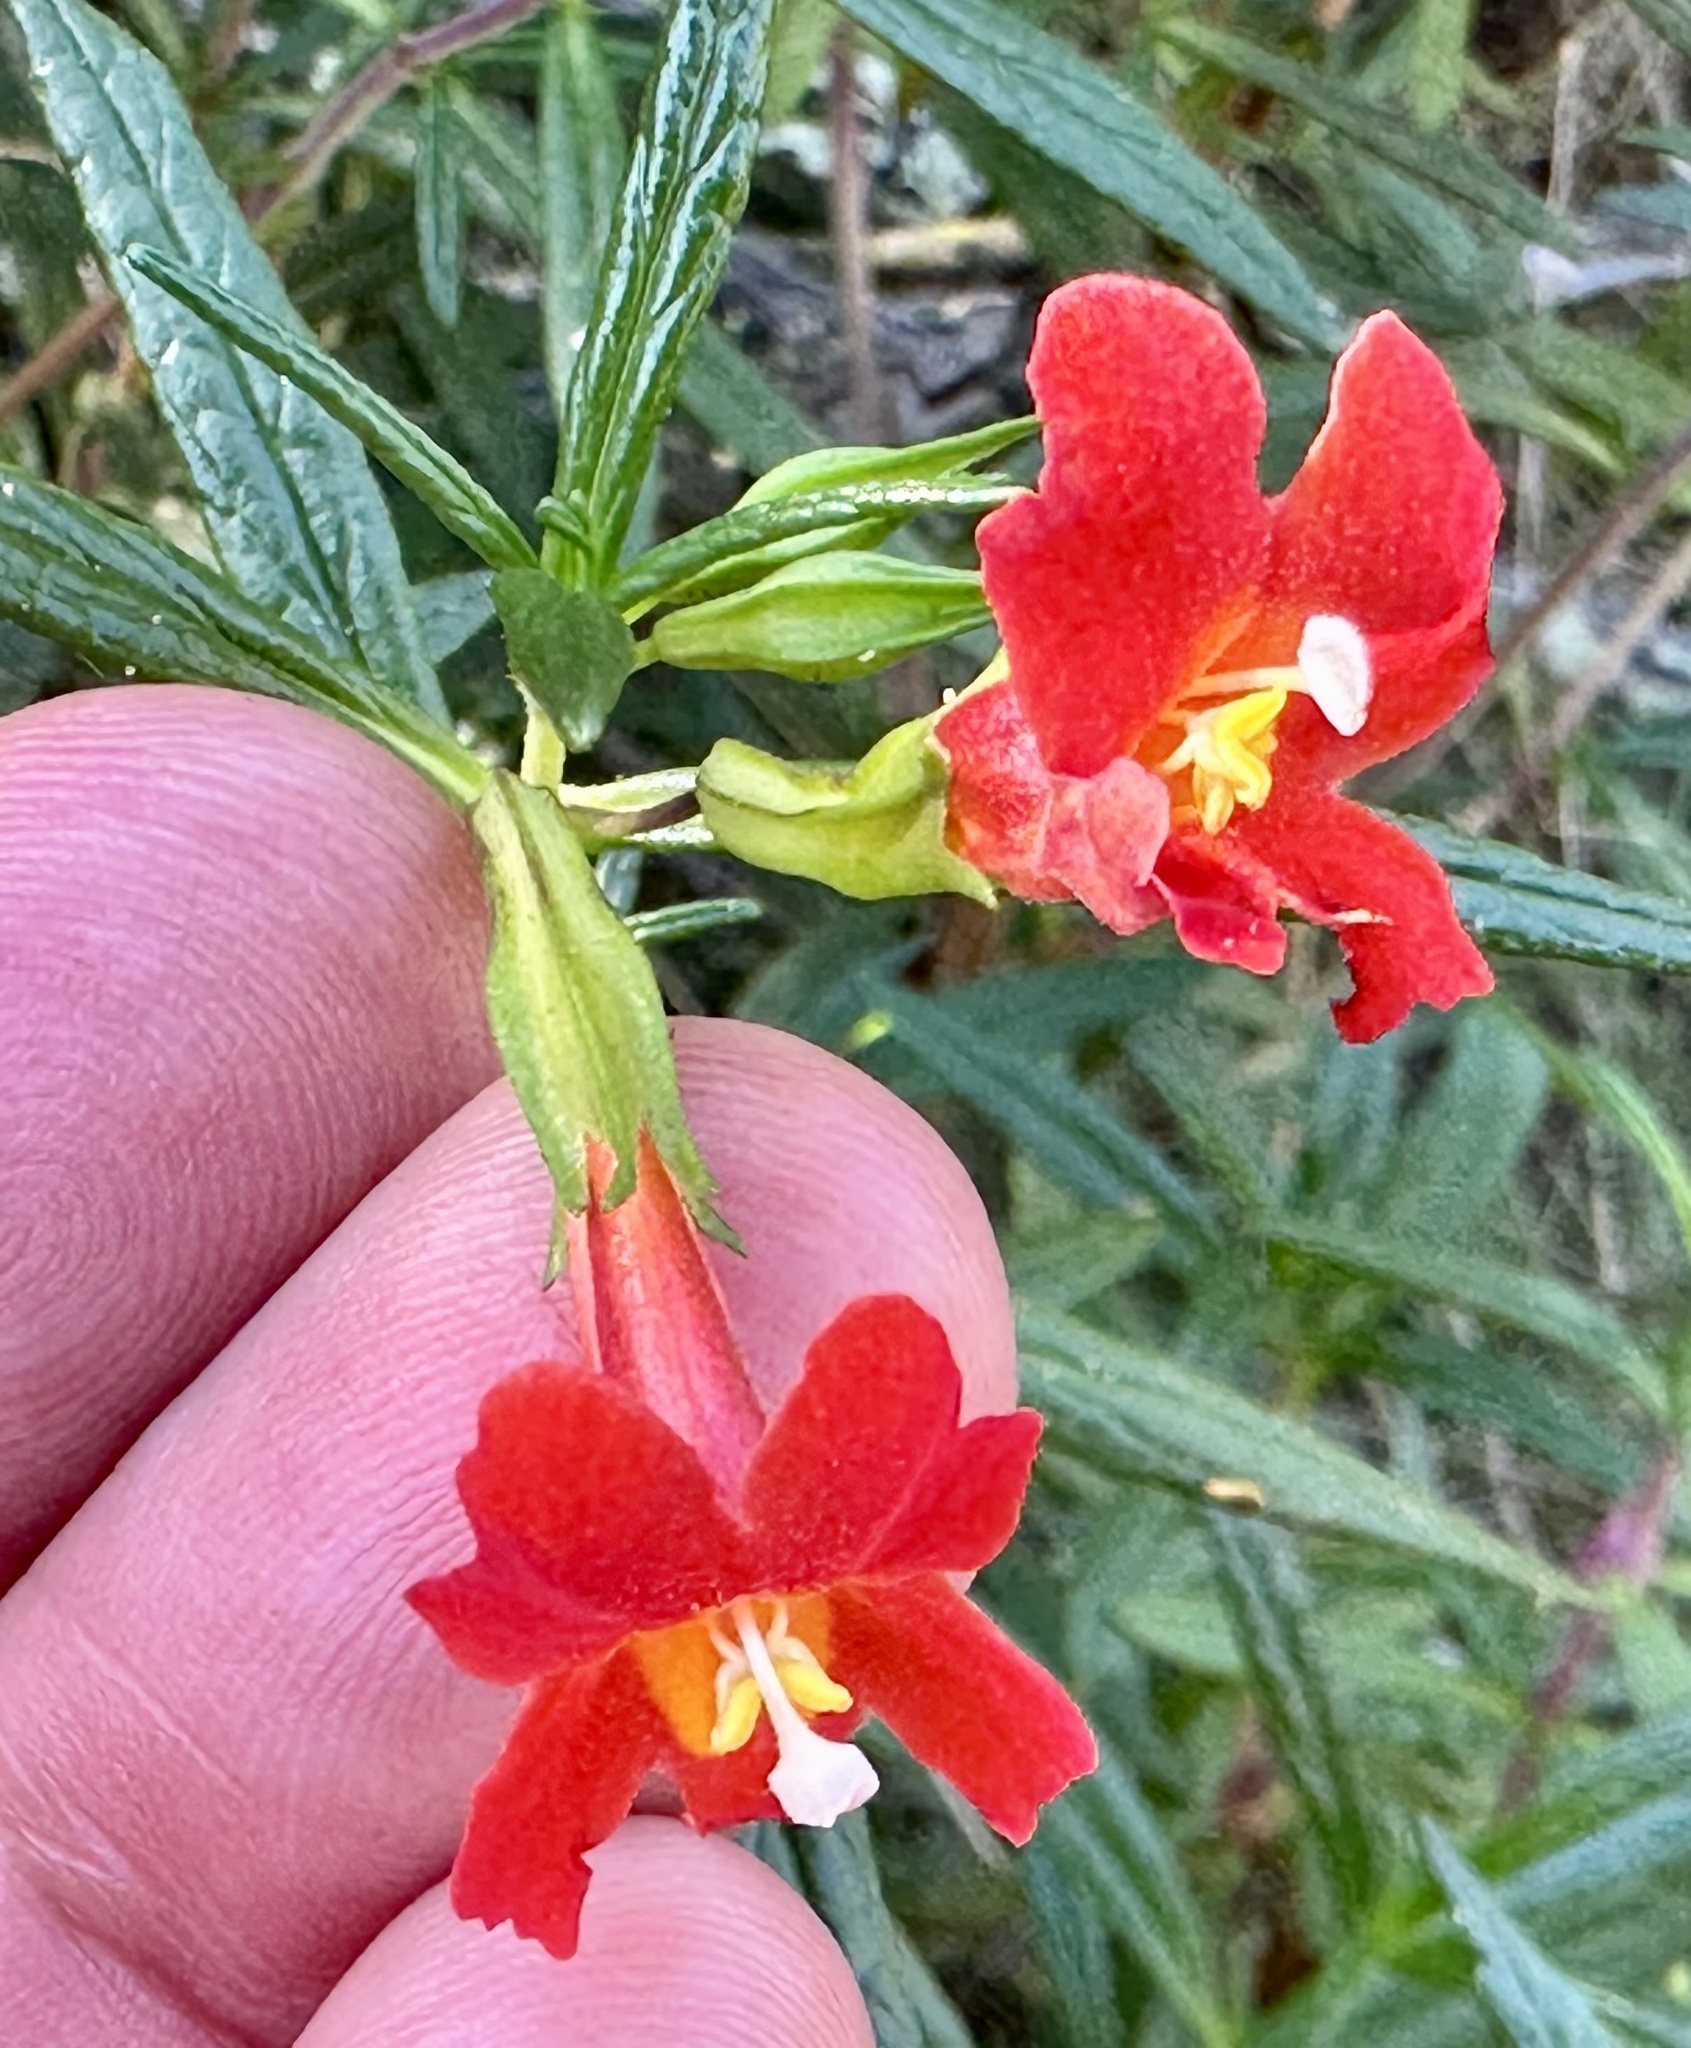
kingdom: Plantae
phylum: Tracheophyta
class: Magnoliopsida
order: Lamiales
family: Phrymaceae
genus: Diplacus
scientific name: Diplacus puniceus
